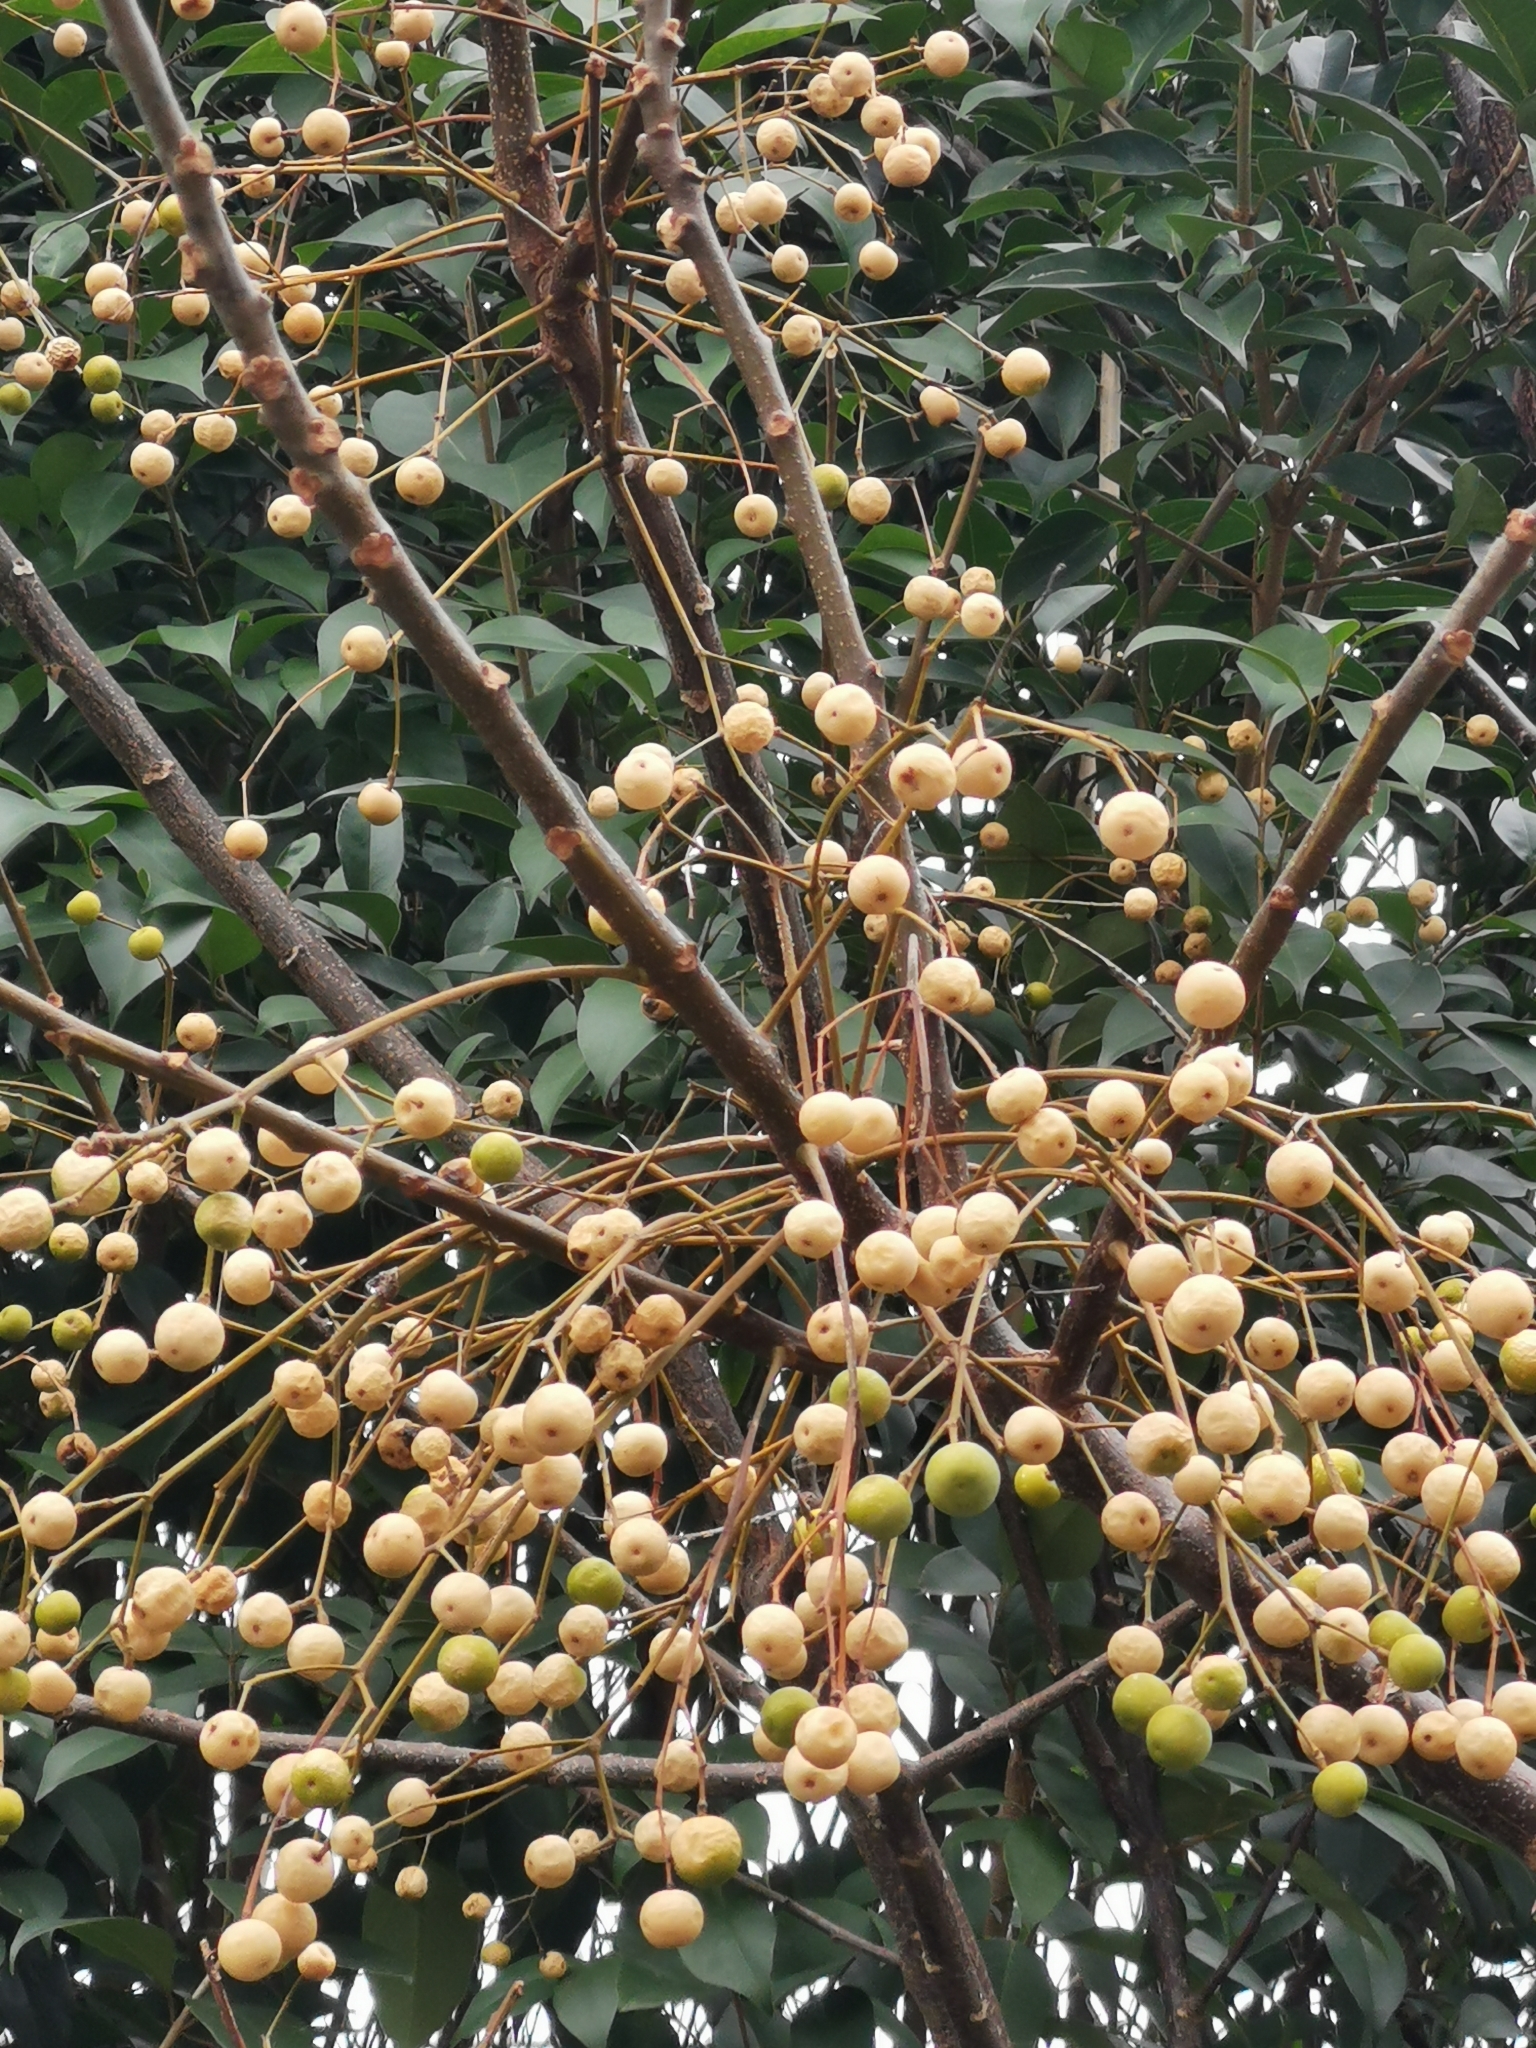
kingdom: Plantae
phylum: Tracheophyta
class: Magnoliopsida
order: Sapindales
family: Meliaceae
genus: Melia
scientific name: Melia azedarach
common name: Chinaberrytree
